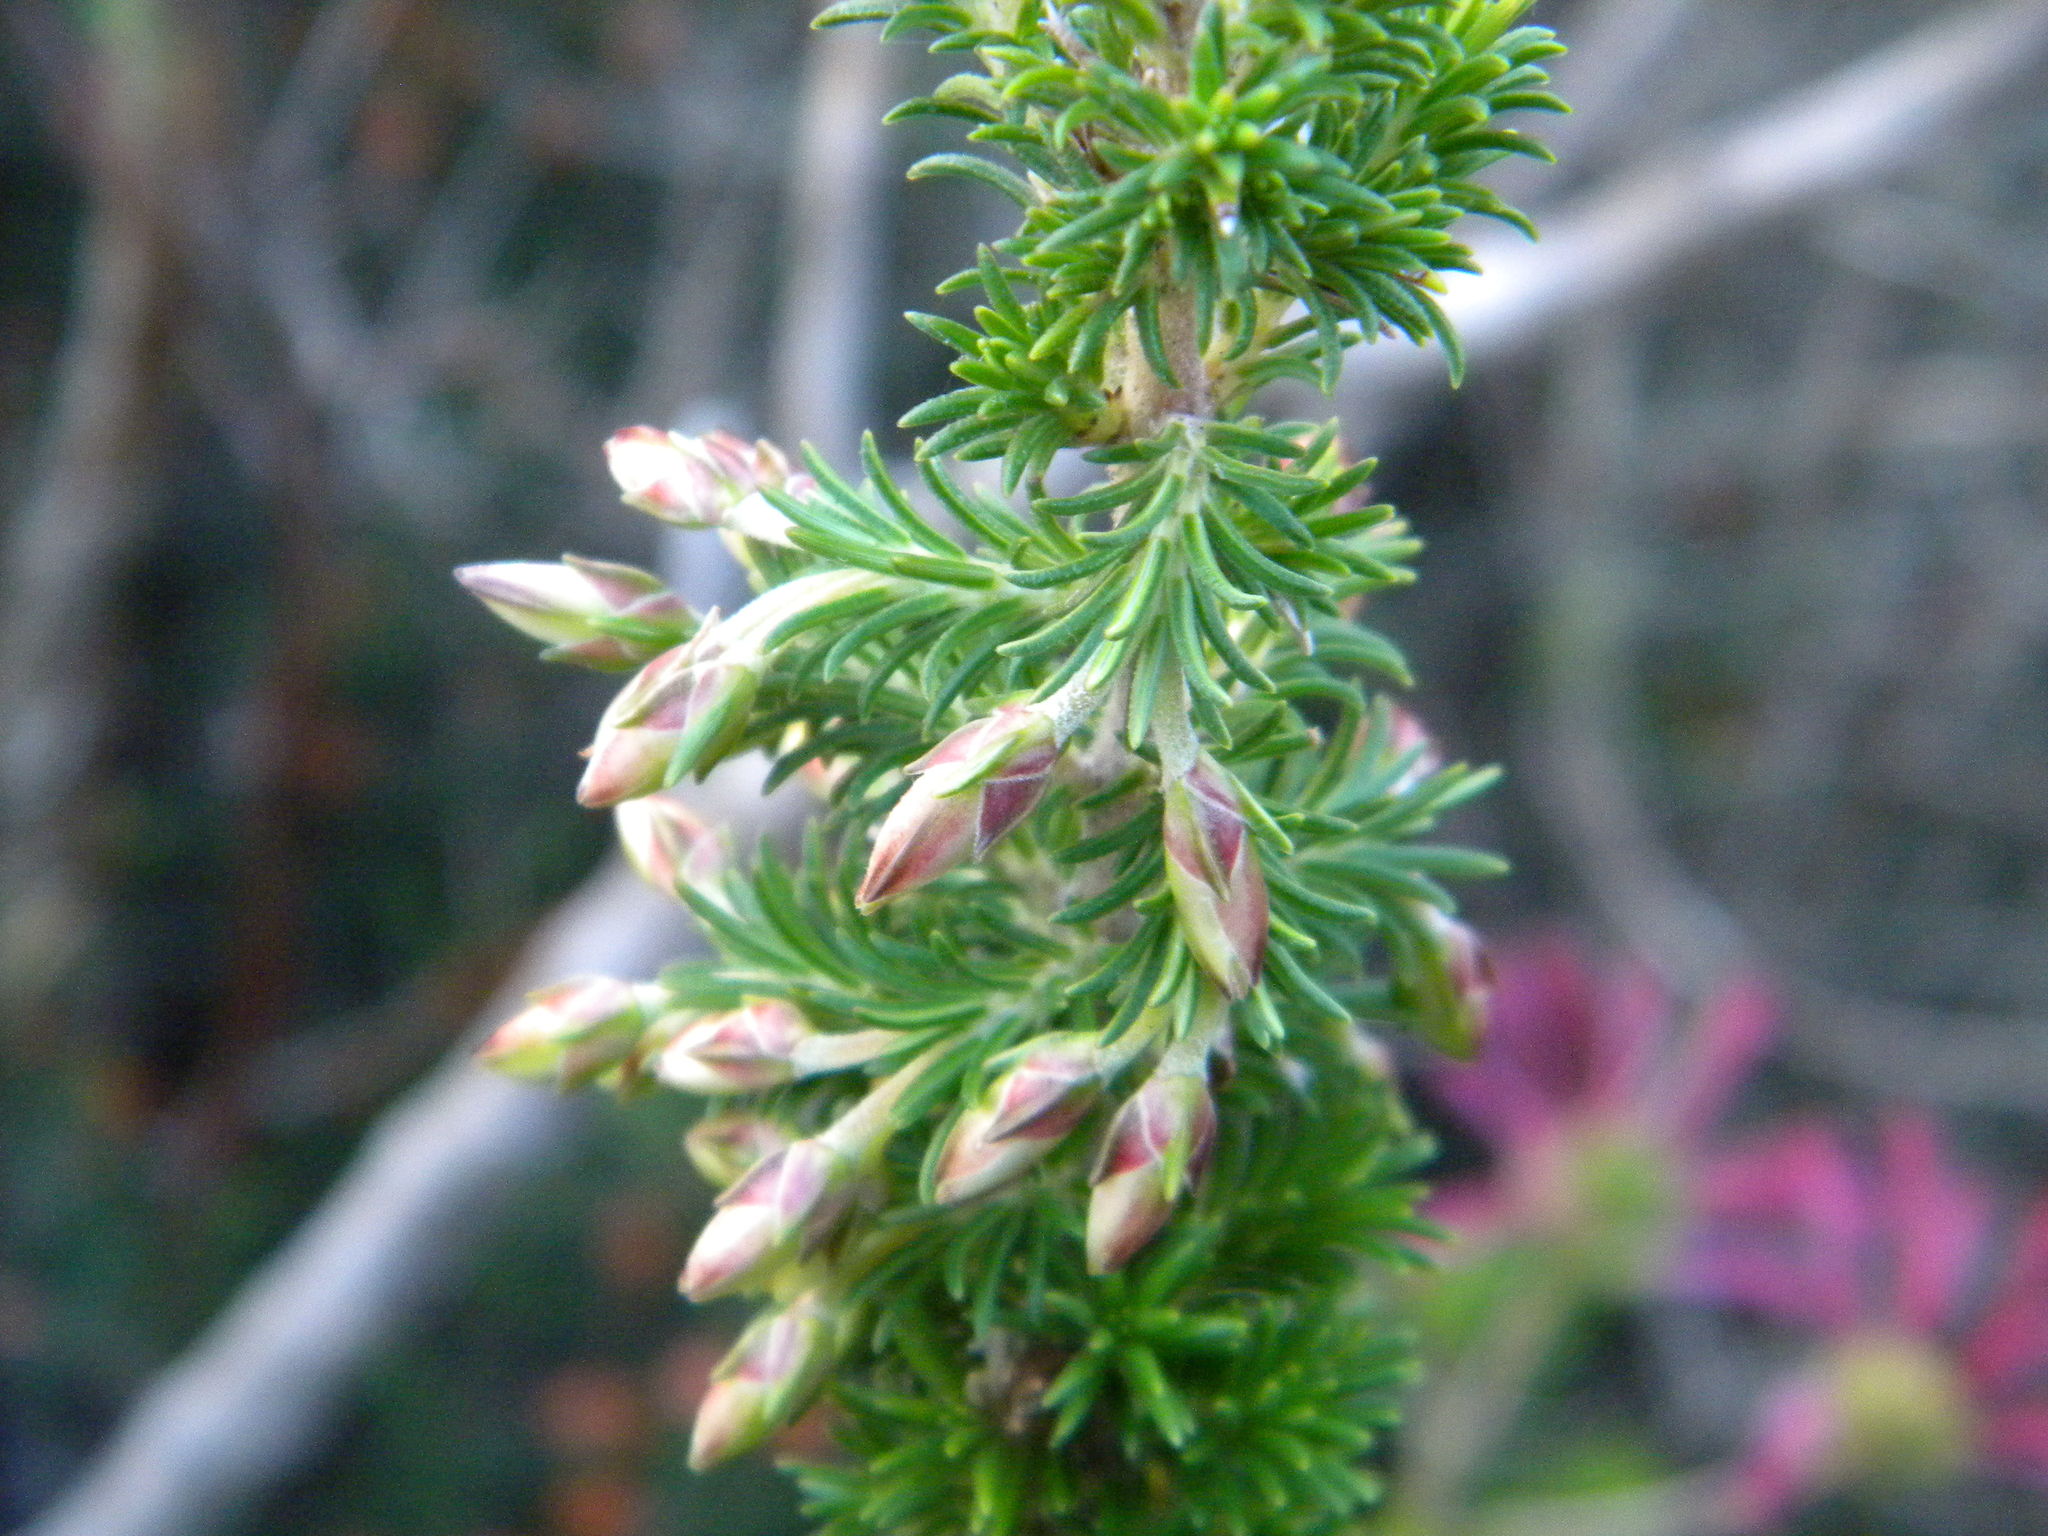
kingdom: Plantae
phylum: Tracheophyta
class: Magnoliopsida
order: Ericales
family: Ericaceae
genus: Erica
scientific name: Erica coccinea
